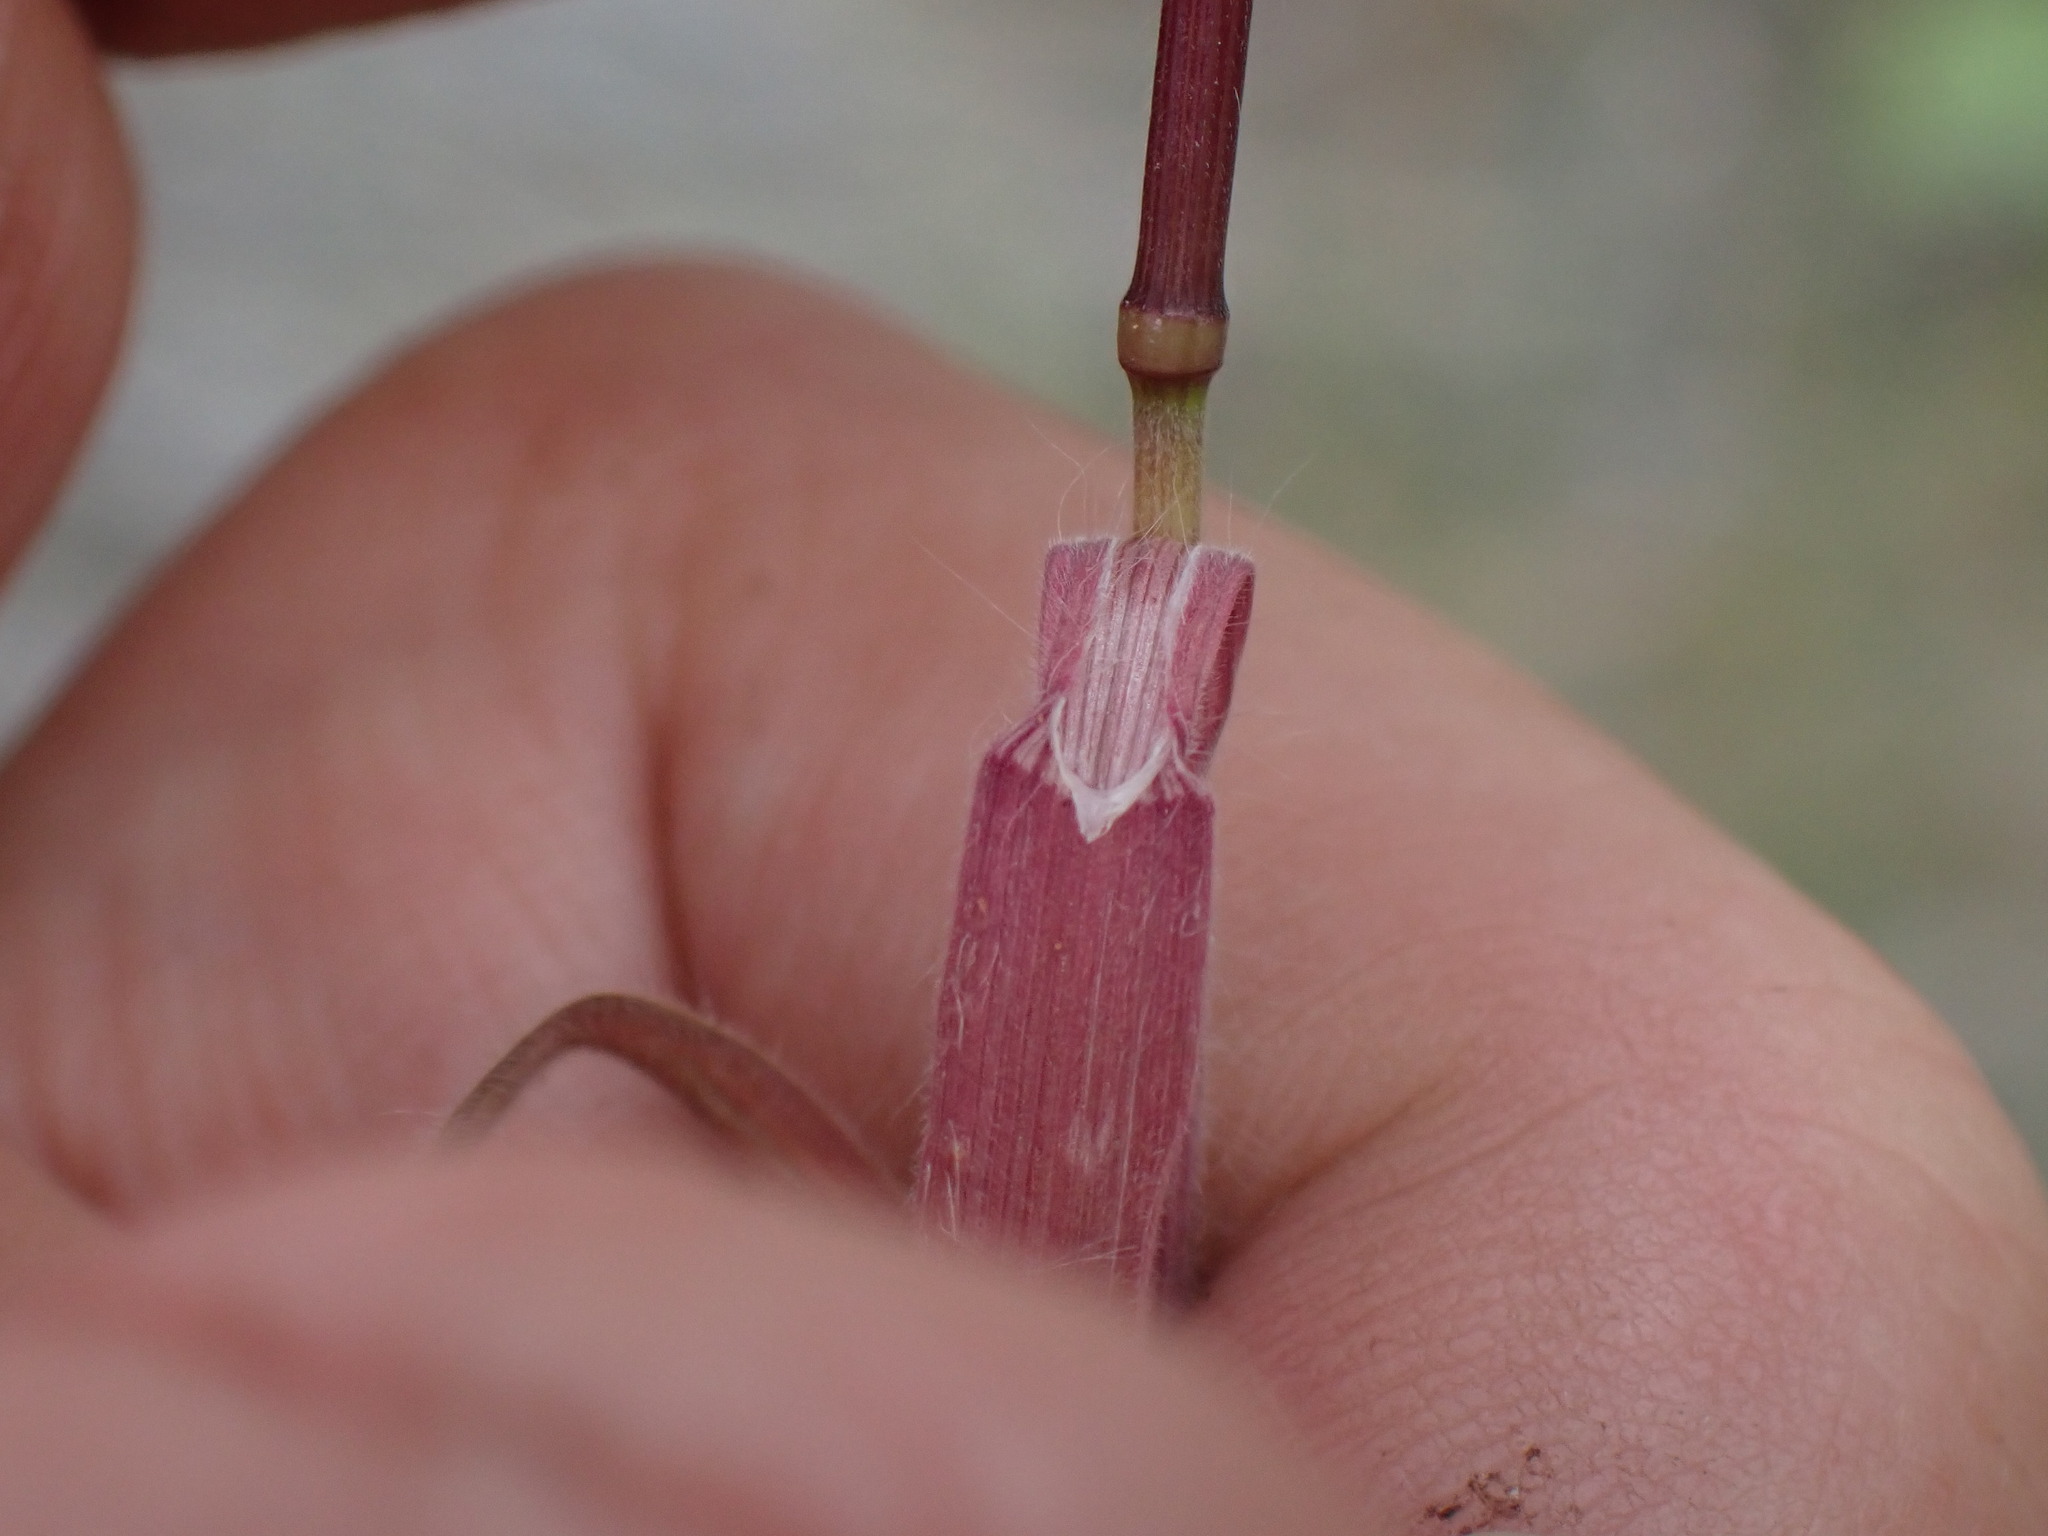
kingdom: Plantae
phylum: Tracheophyta
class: Liliopsida
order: Poales
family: Poaceae
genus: Bromus
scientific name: Bromus tectorum
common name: Cheatgrass
